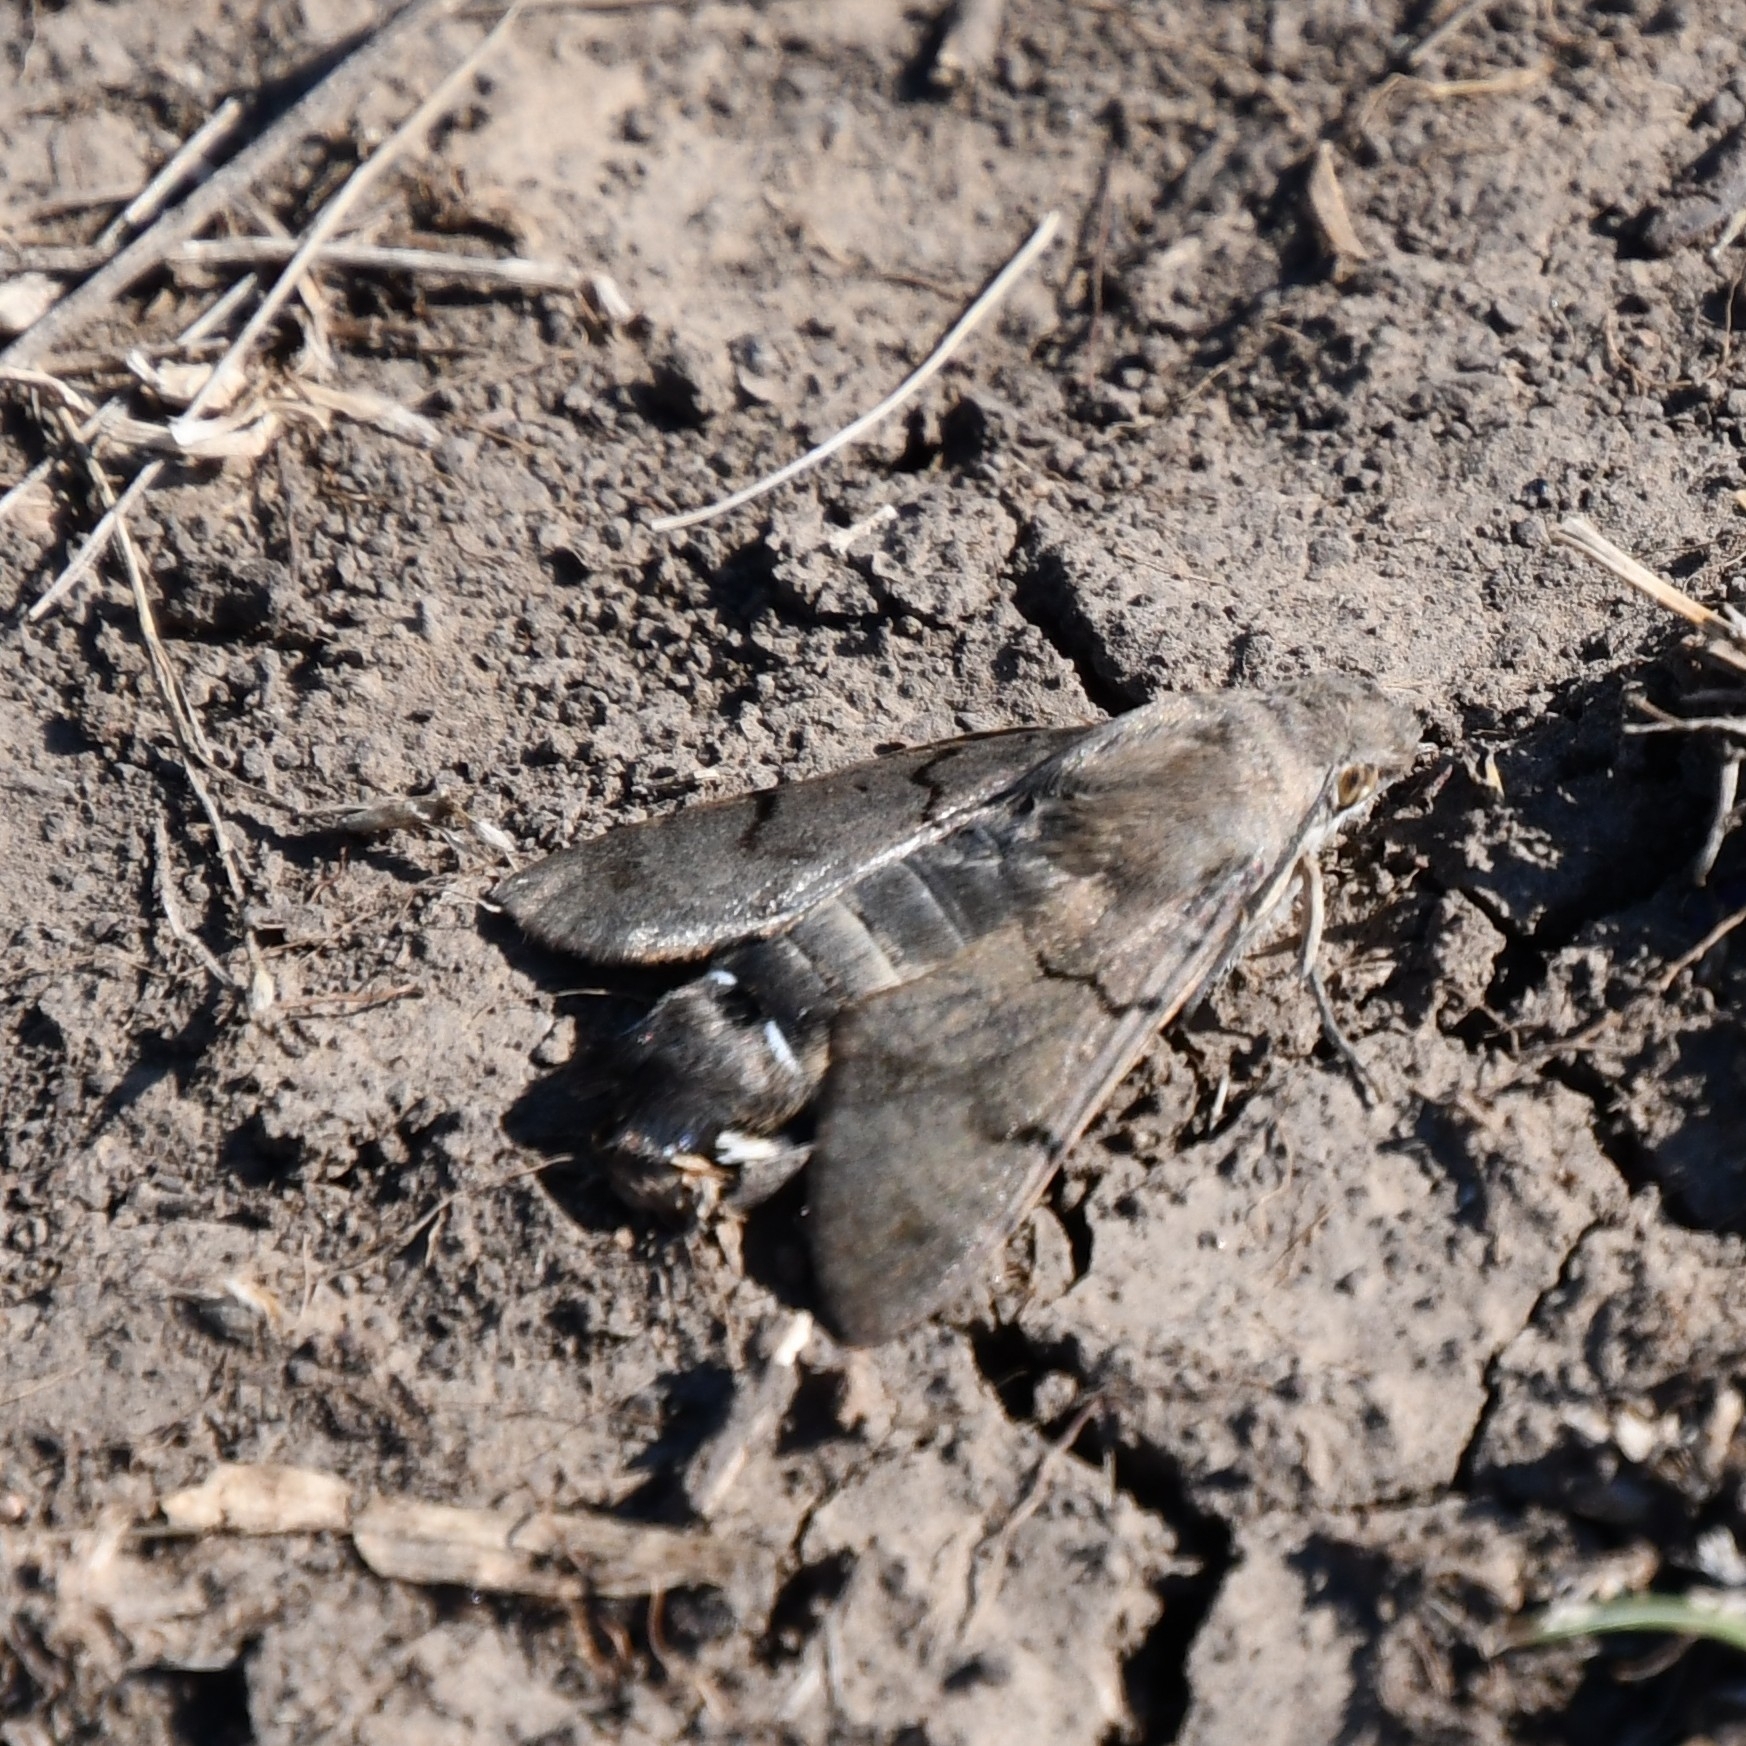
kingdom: Animalia
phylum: Arthropoda
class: Insecta
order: Lepidoptera
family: Sphingidae
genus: Macroglossum
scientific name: Macroglossum stellatarum
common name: Humming-bird hawk-moth
